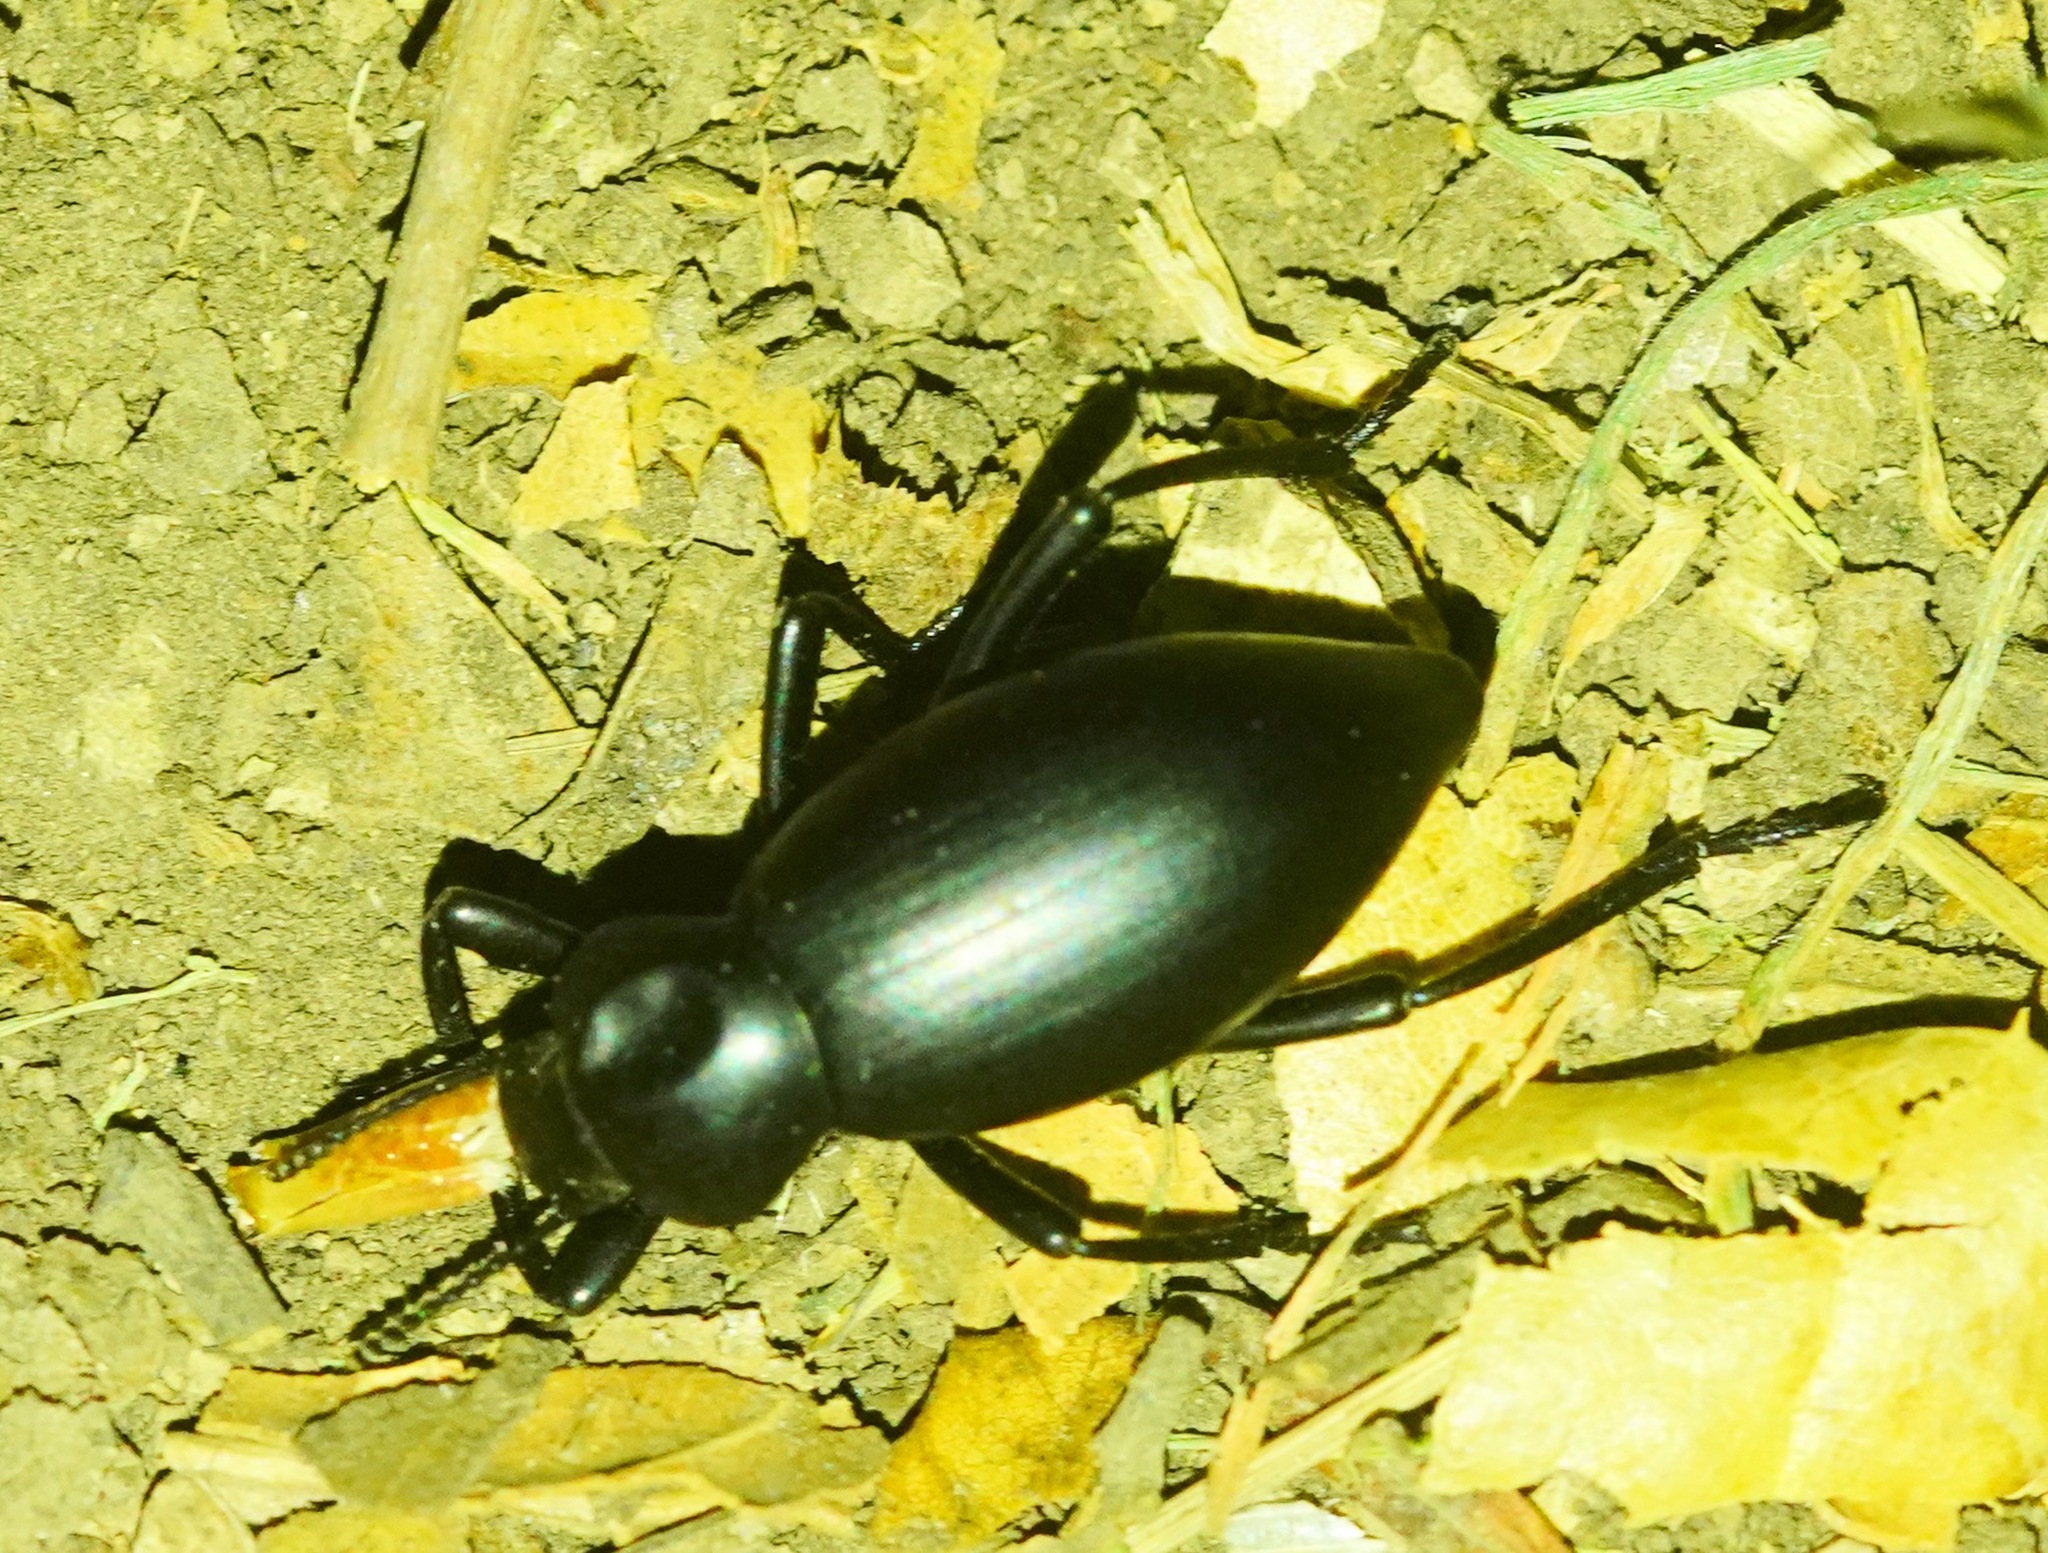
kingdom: Animalia
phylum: Arthropoda
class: Insecta
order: Coleoptera
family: Tenebrionidae
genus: Eleodes
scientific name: Eleodes dentipes
